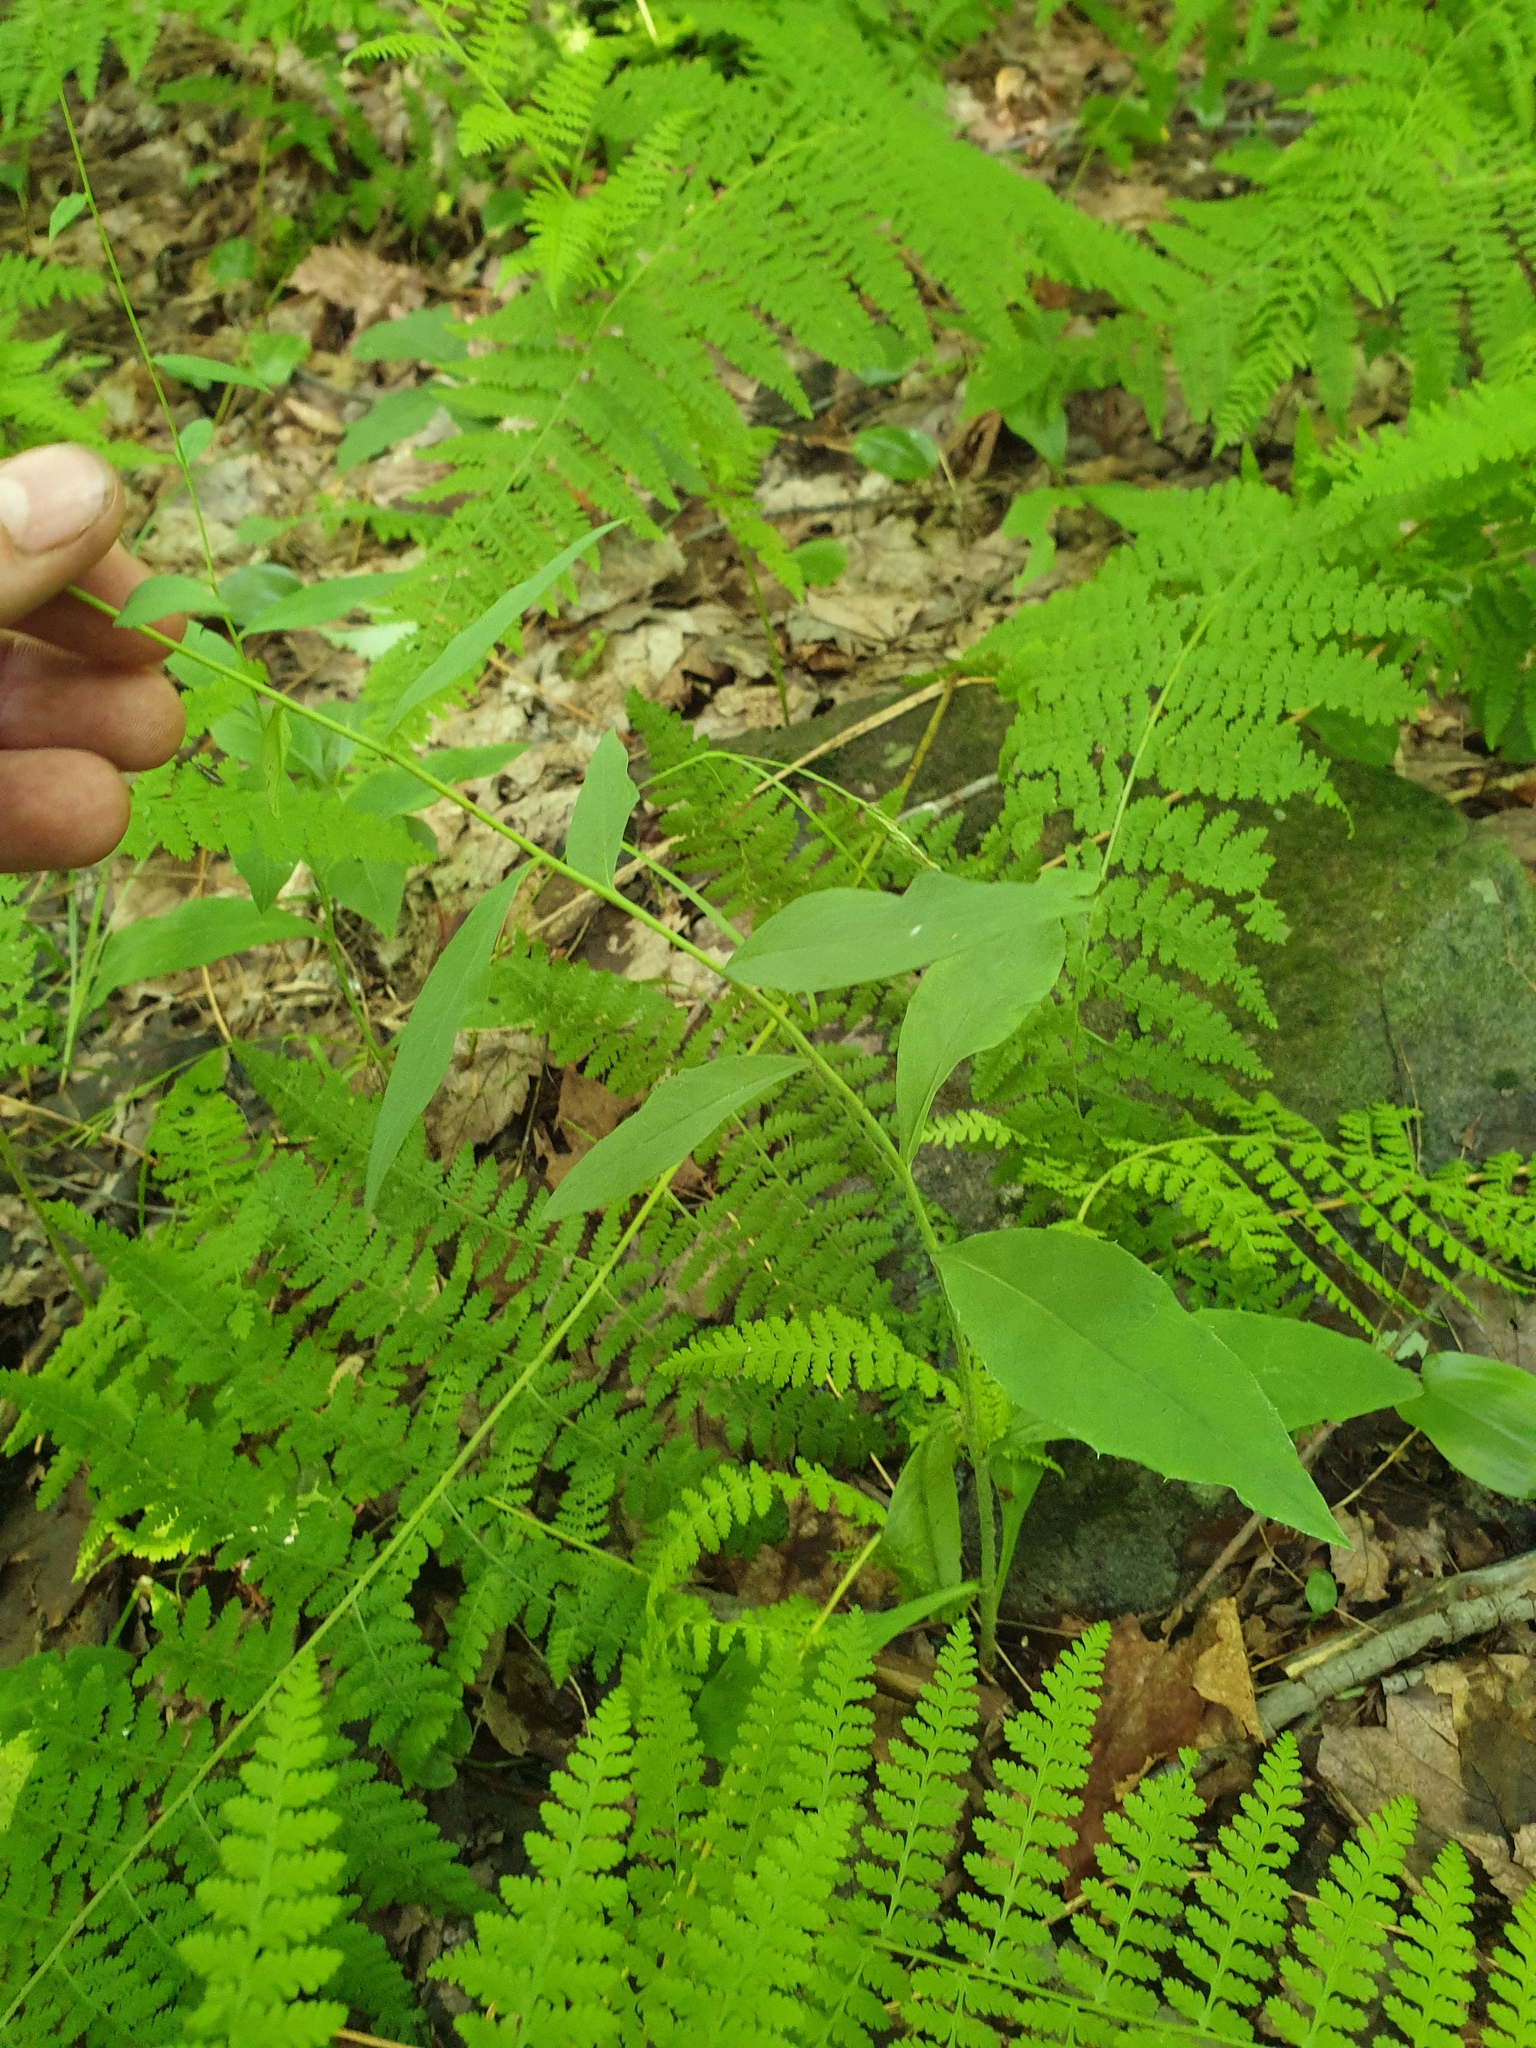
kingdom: Plantae
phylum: Tracheophyta
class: Polypodiopsida
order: Polypodiales
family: Dennstaedtiaceae
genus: Sitobolium
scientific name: Sitobolium punctilobum
